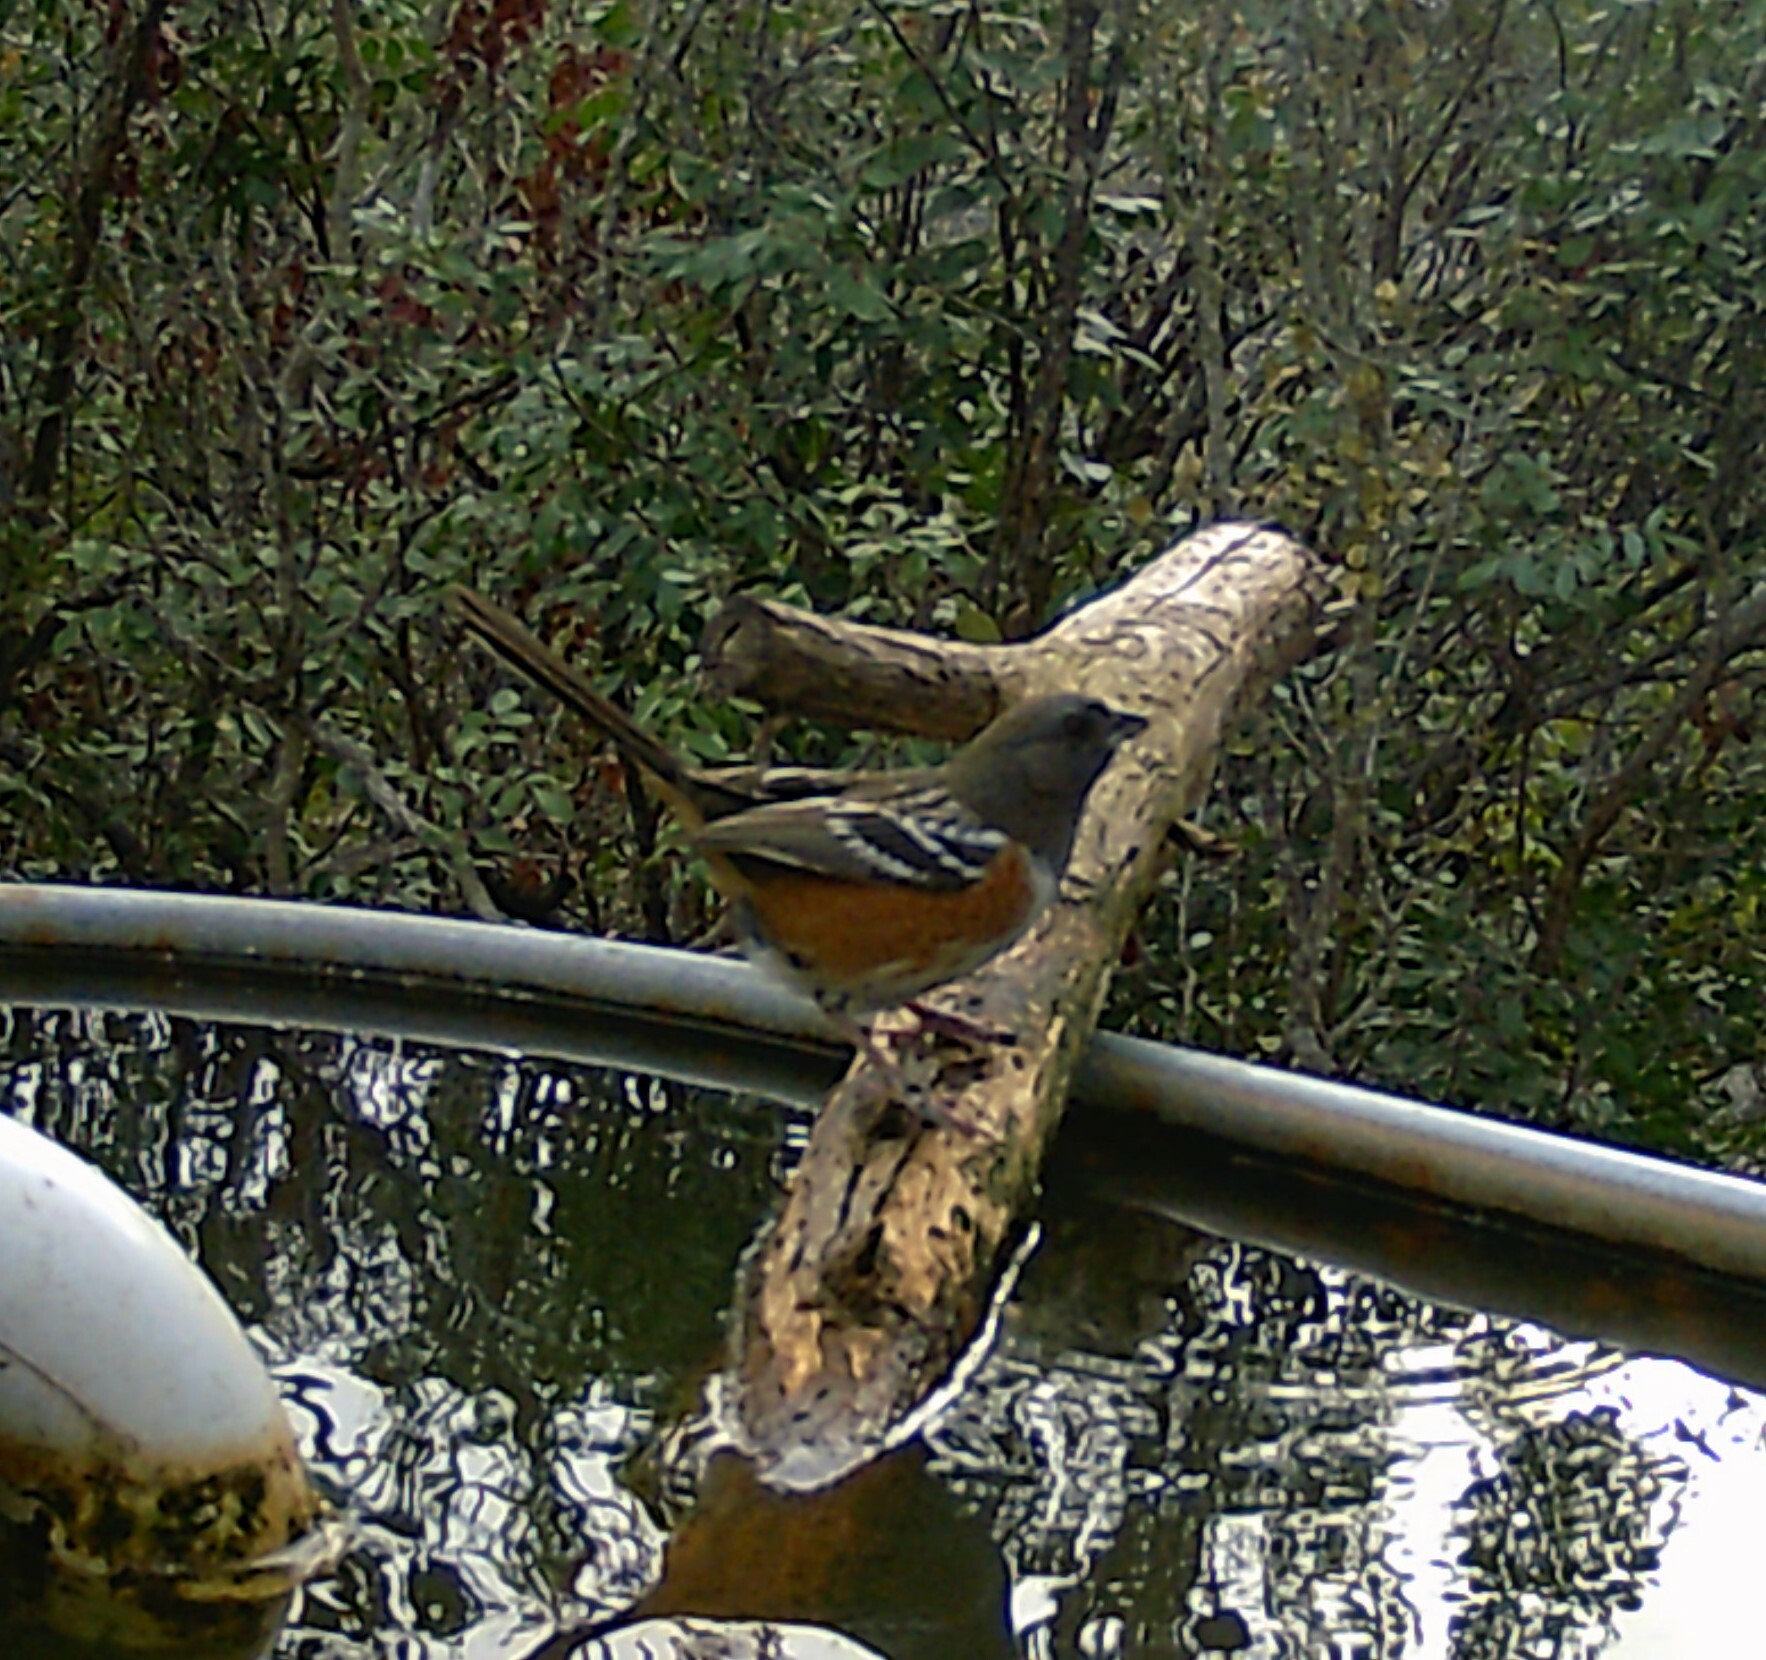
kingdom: Animalia
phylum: Chordata
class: Aves
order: Passeriformes
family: Passerellidae
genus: Pipilo
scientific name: Pipilo maculatus
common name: Spotted towhee
